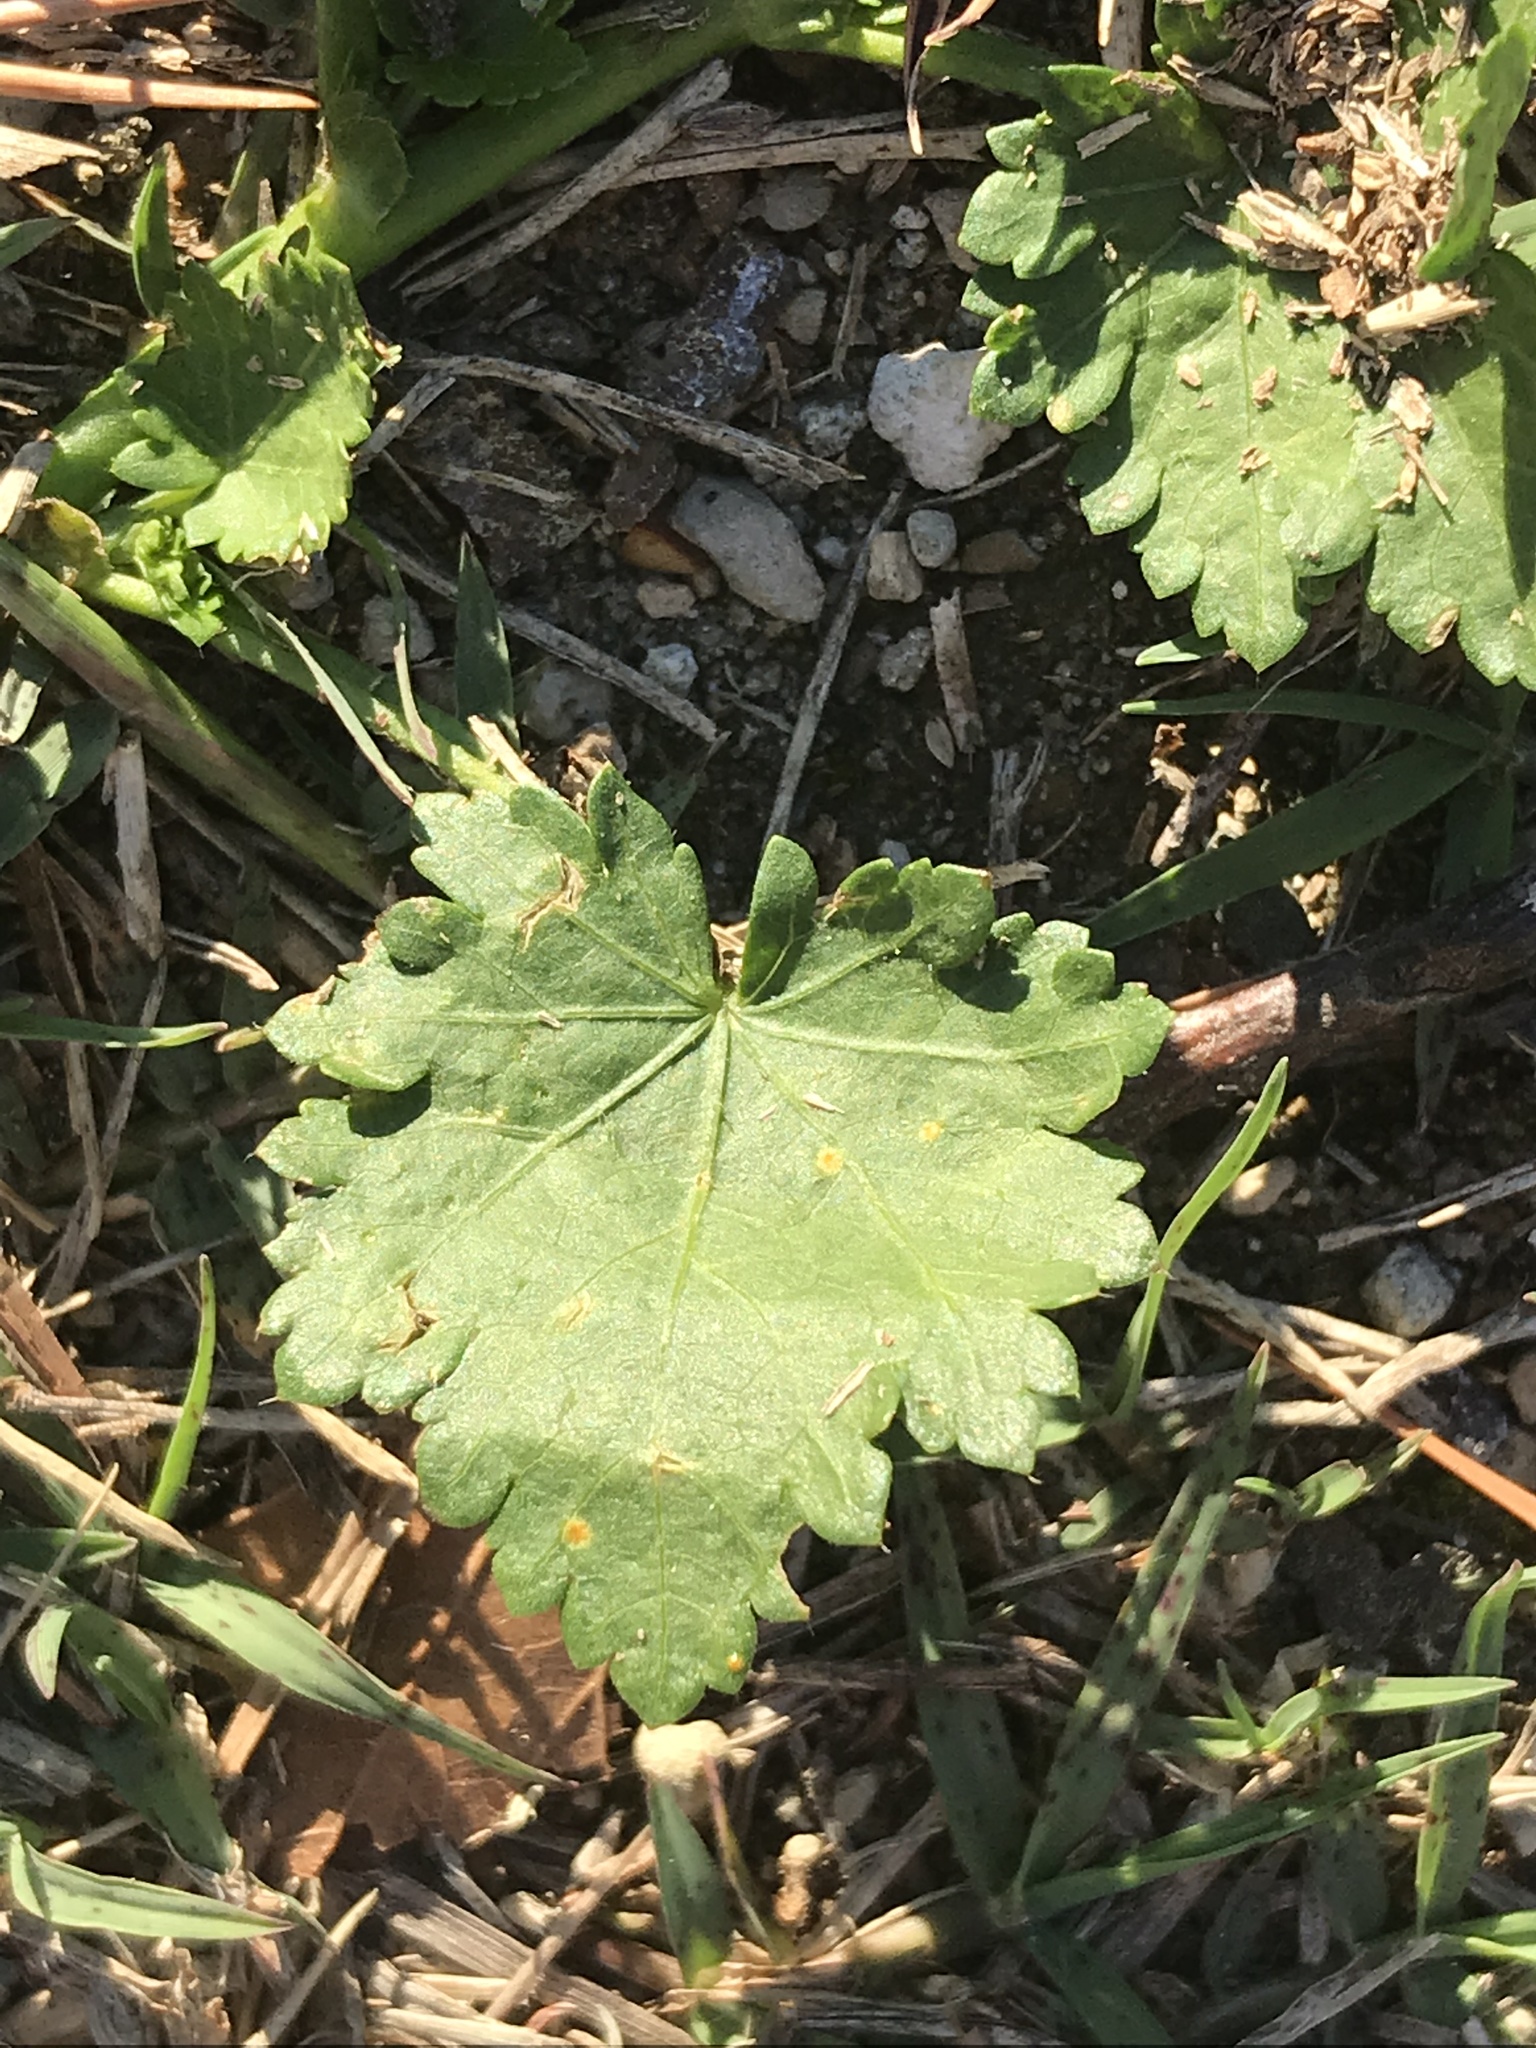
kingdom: Plantae
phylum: Tracheophyta
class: Magnoliopsida
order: Malvales
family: Malvaceae
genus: Modiola
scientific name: Modiola caroliniana
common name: Carolina bristlemallow
